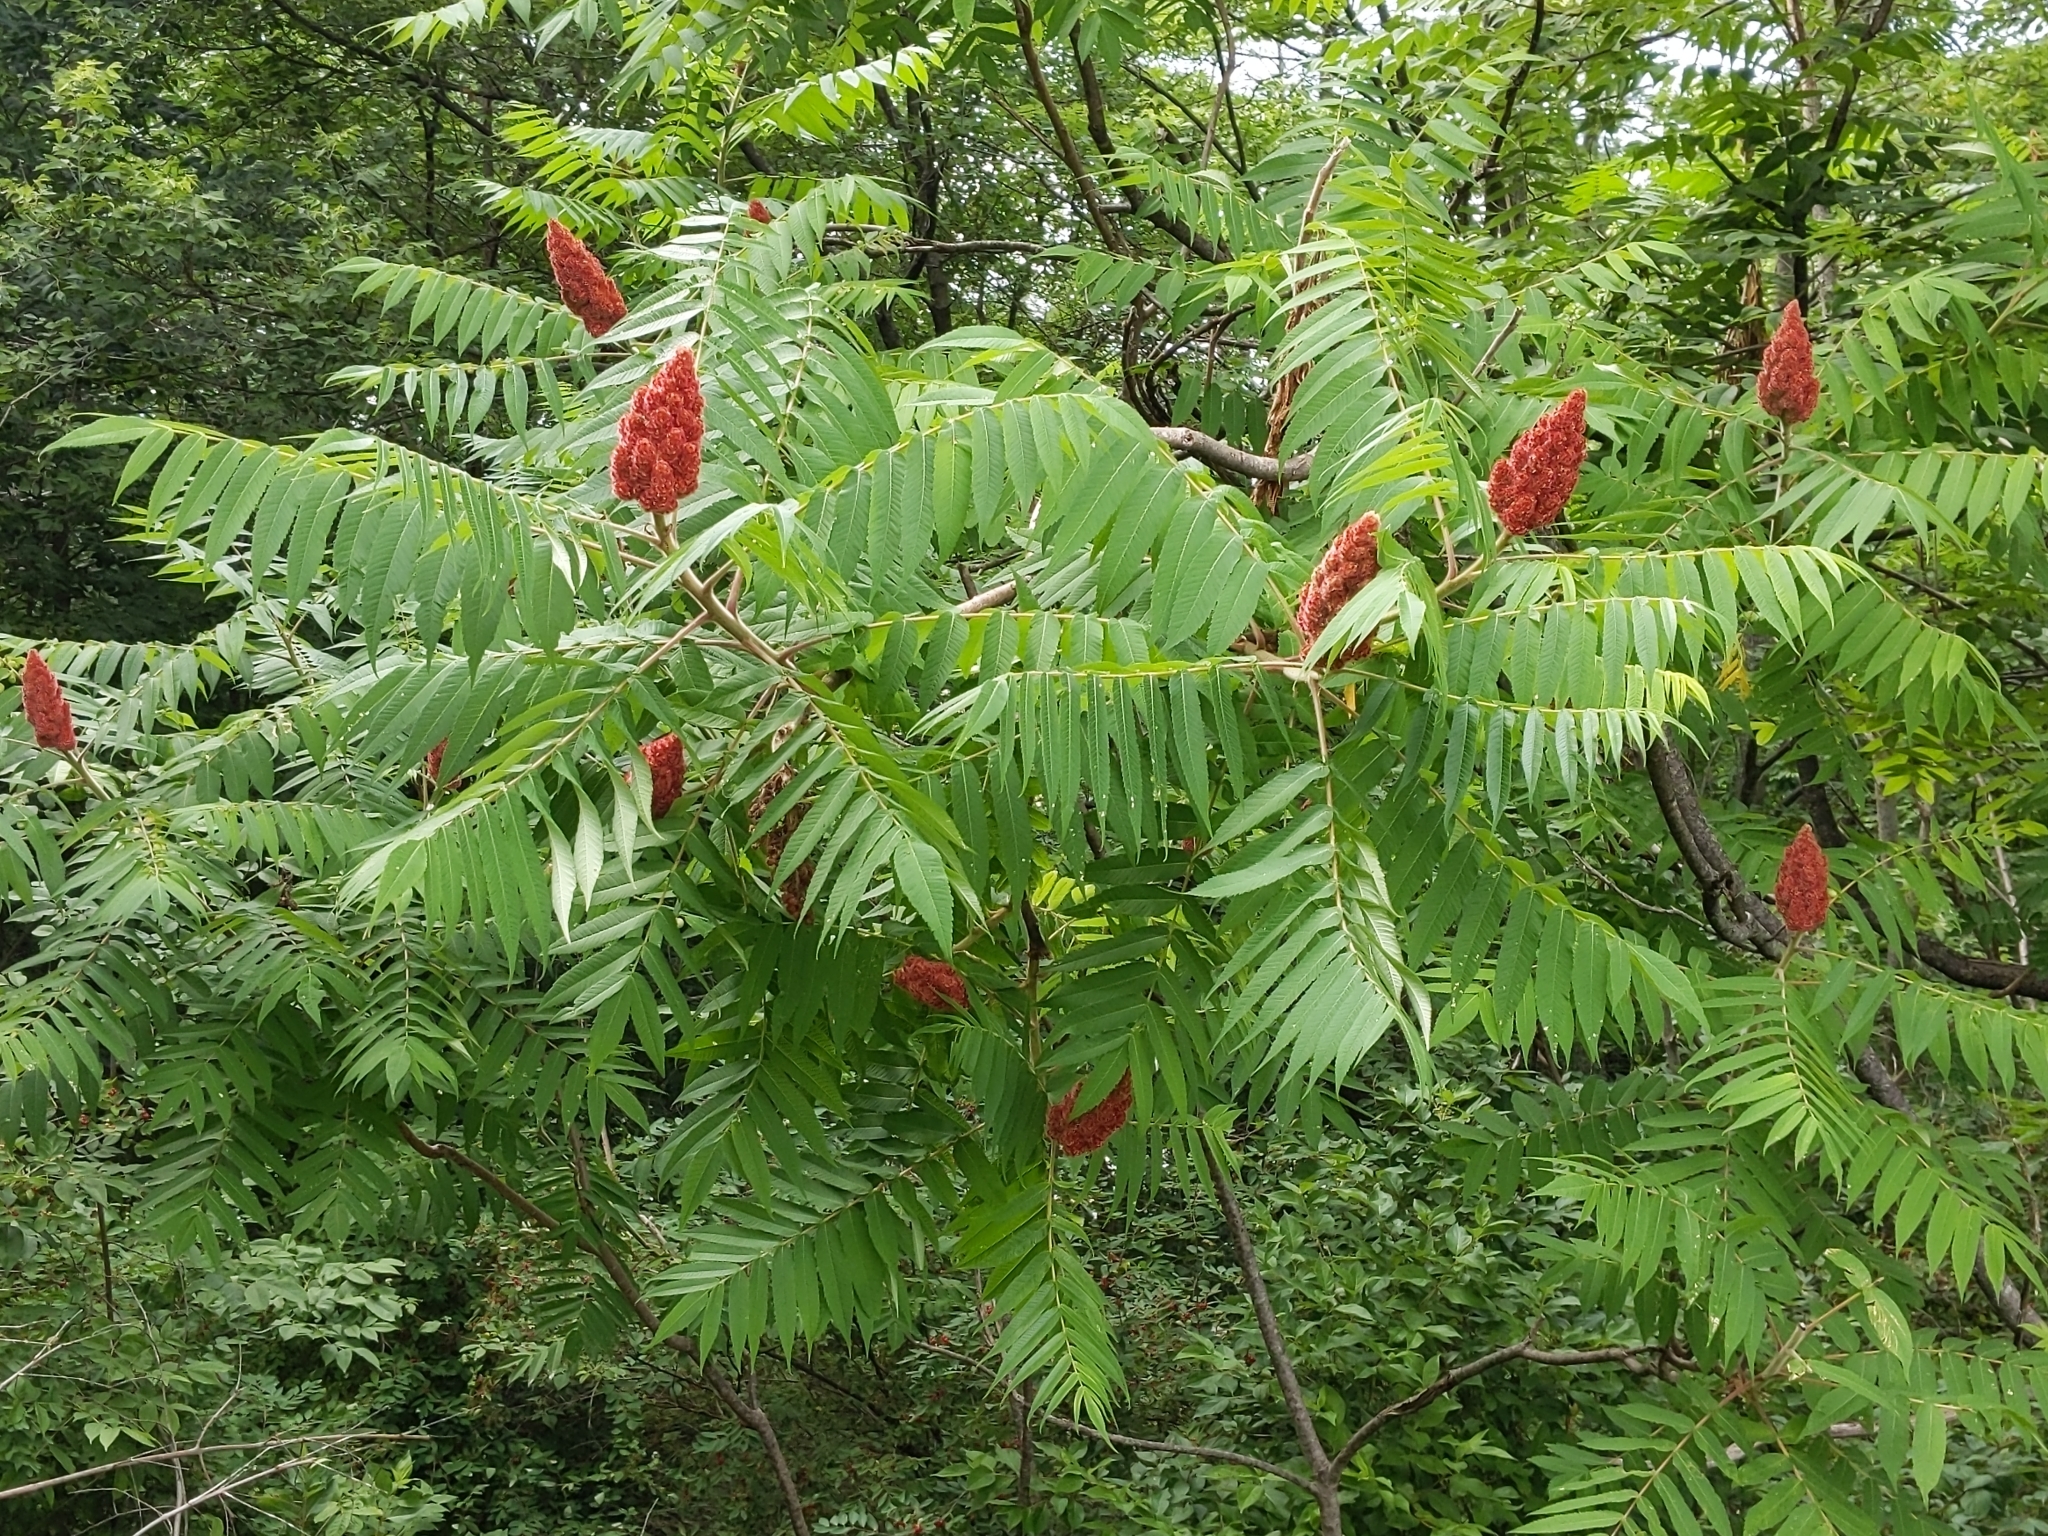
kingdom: Plantae
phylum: Tracheophyta
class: Magnoliopsida
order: Sapindales
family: Anacardiaceae
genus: Rhus
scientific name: Rhus typhina
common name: Staghorn sumac
